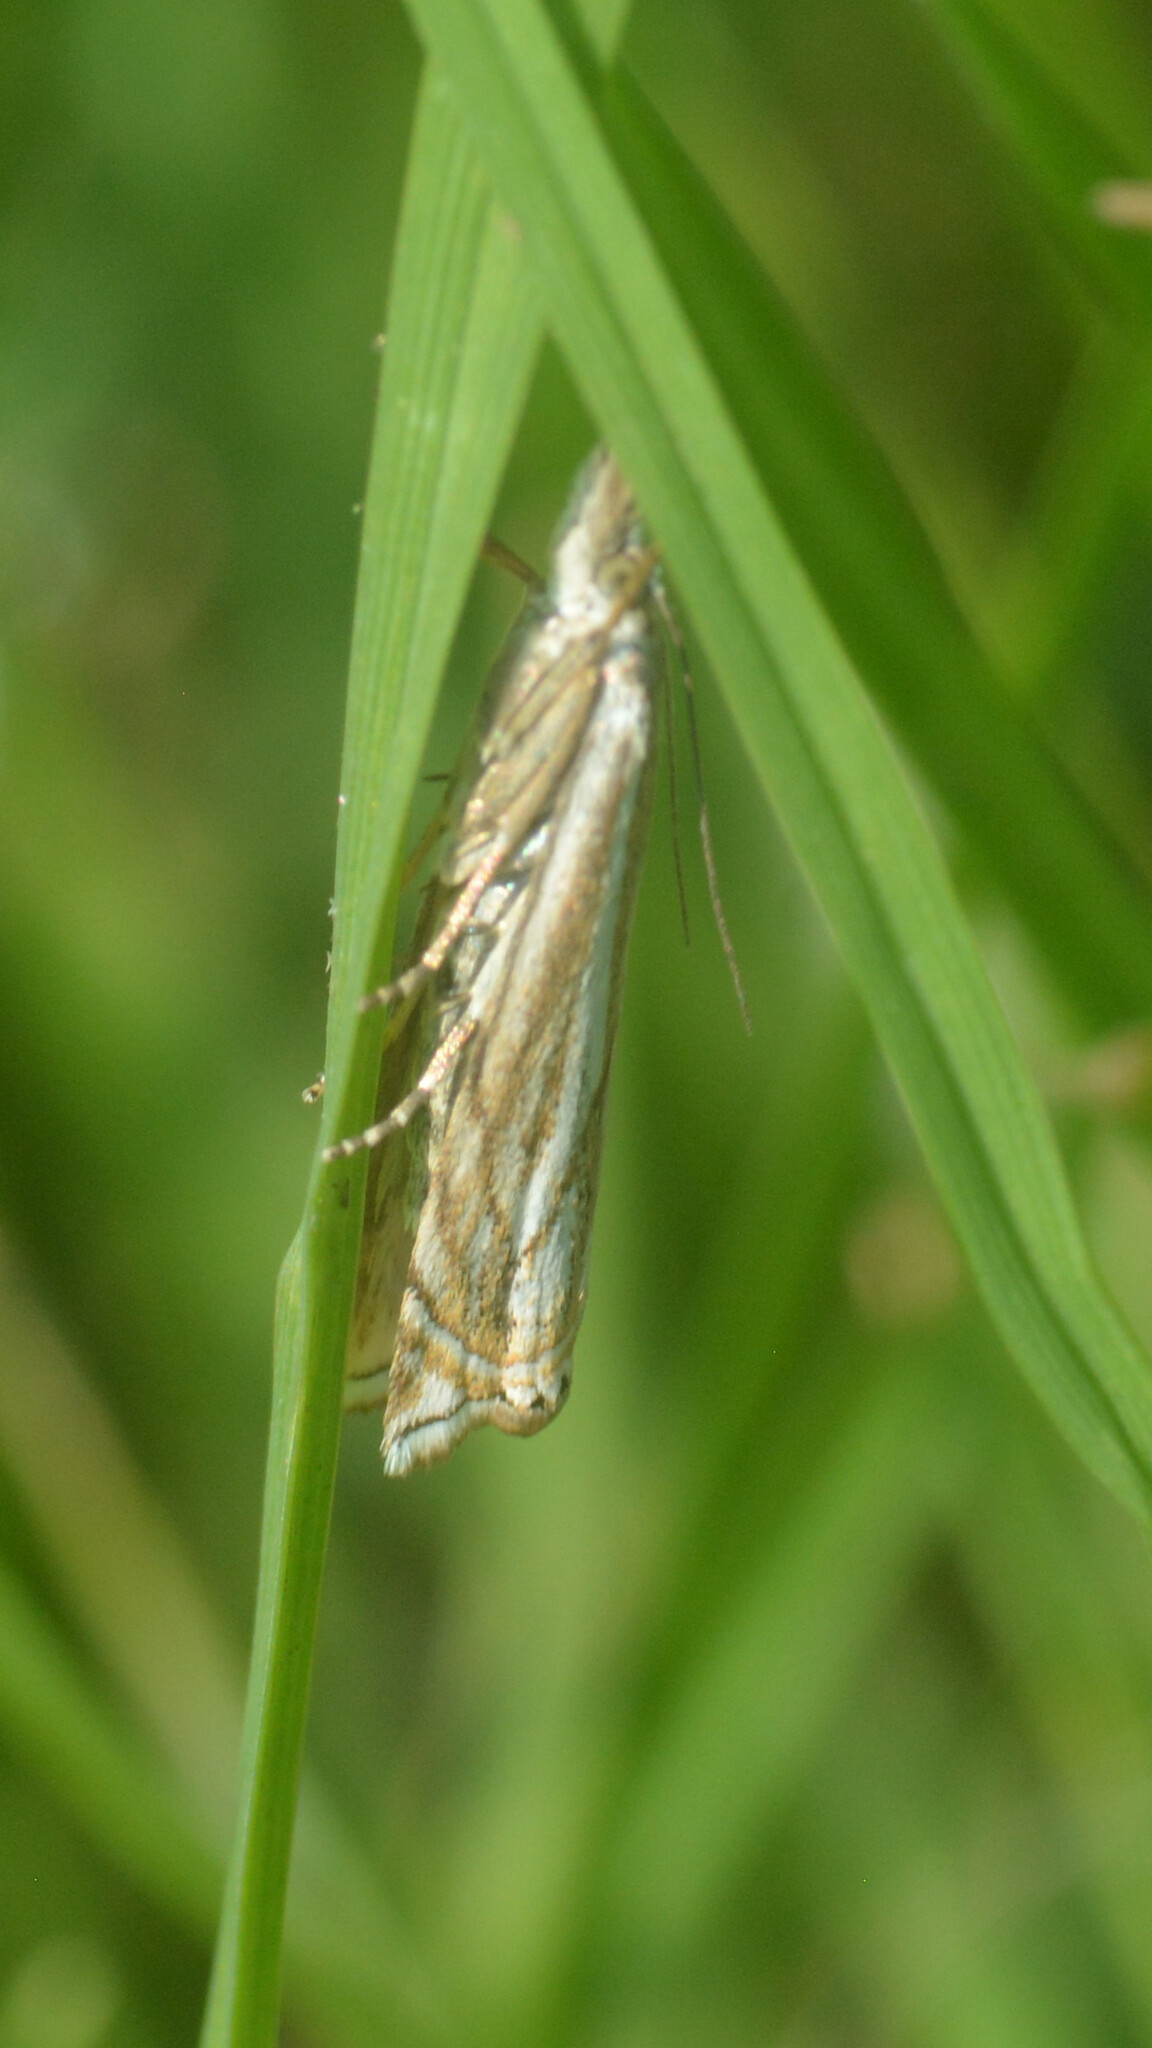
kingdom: Animalia
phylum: Arthropoda
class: Insecta
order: Lepidoptera
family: Crambidae
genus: Crambus
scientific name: Crambus nemorella
